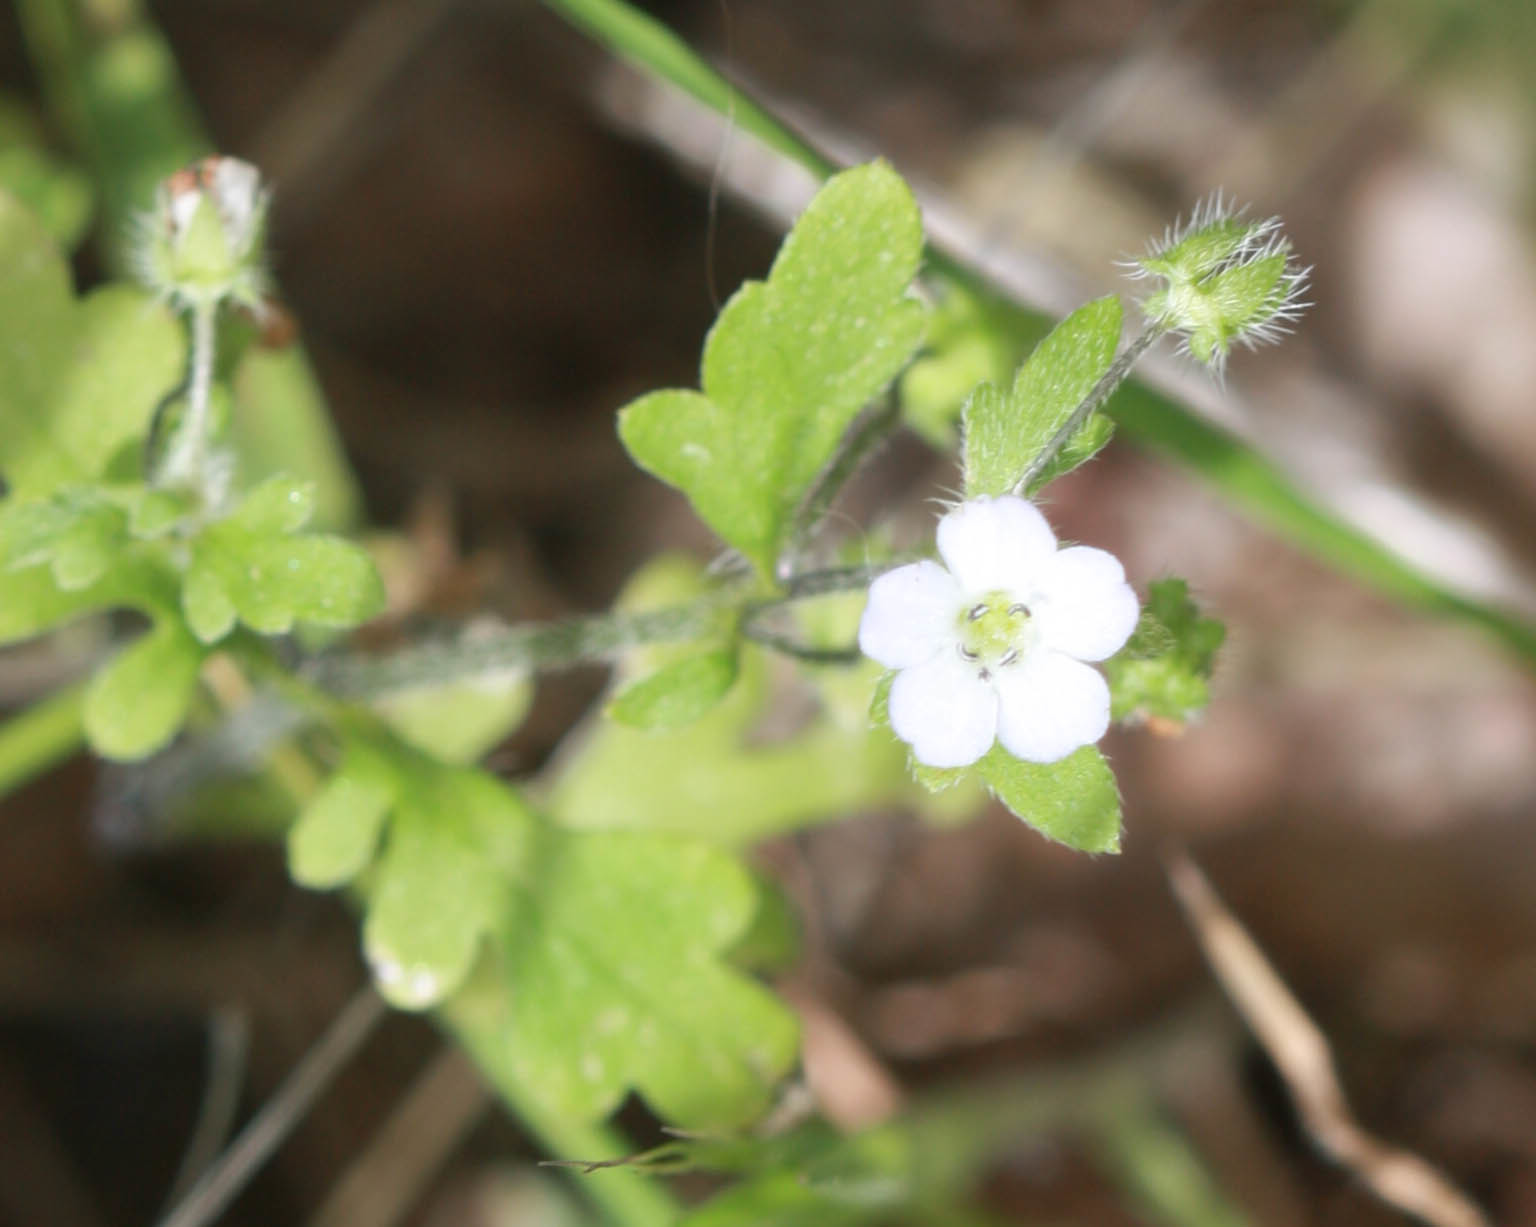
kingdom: Plantae
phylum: Tracheophyta
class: Magnoliopsida
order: Boraginales
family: Hydrophyllaceae
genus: Nemophila
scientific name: Nemophila heterophylla
